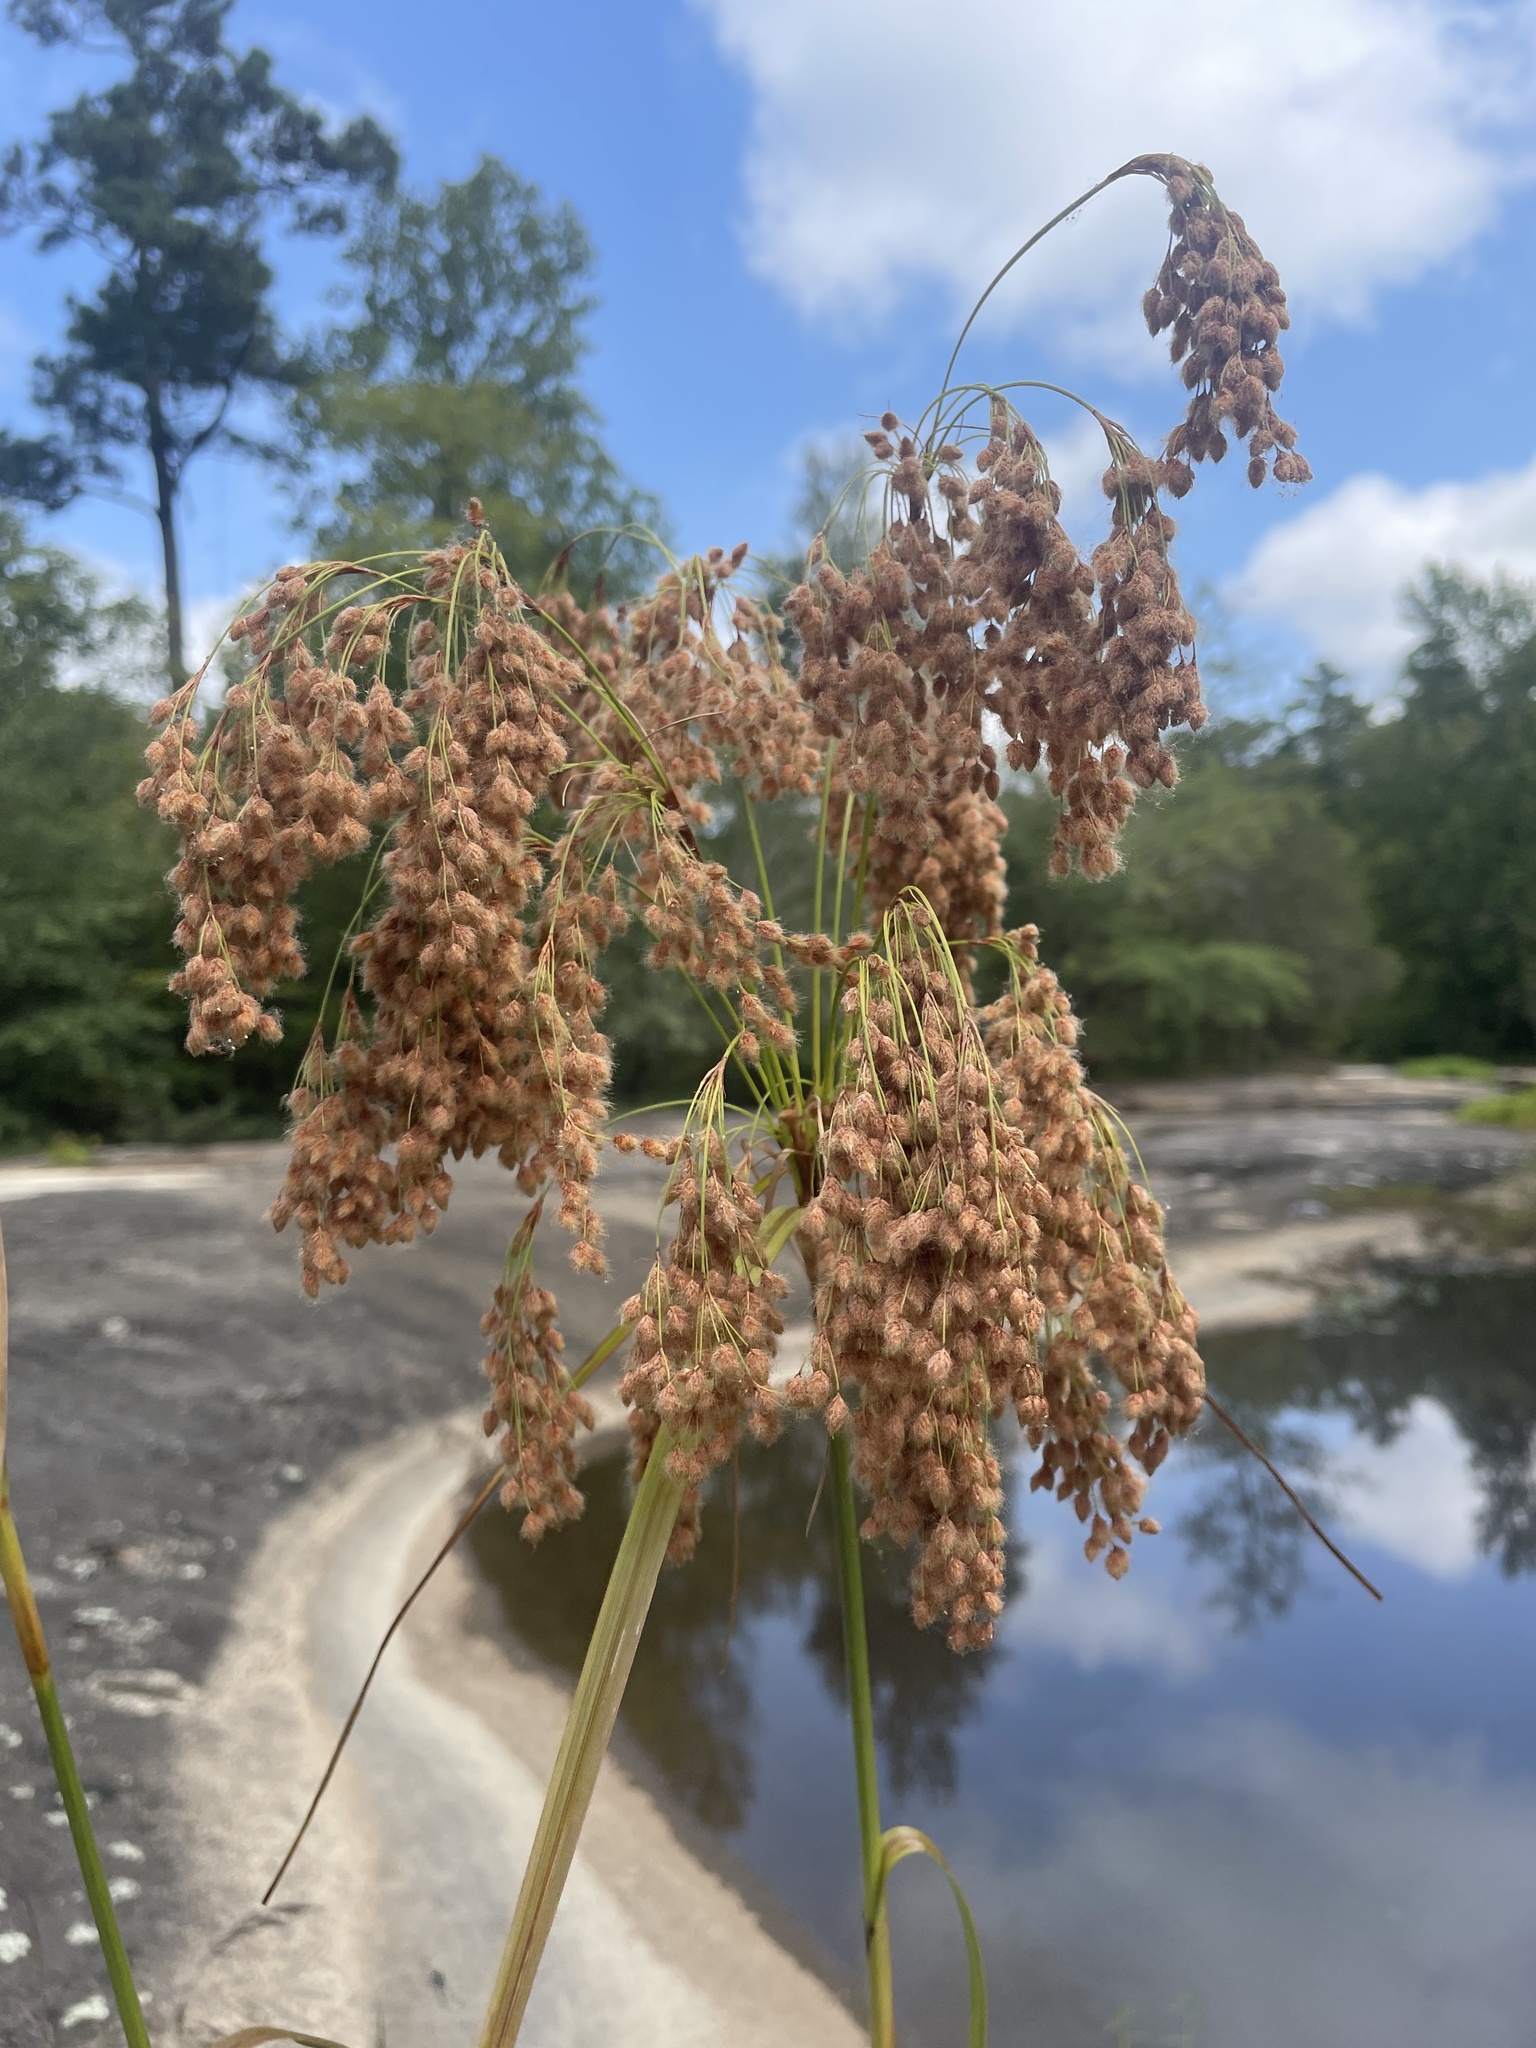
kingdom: Plantae
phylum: Tracheophyta
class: Liliopsida
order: Poales
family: Cyperaceae
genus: Scirpus
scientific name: Scirpus cyperinus
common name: Black-sheathed bulrush
